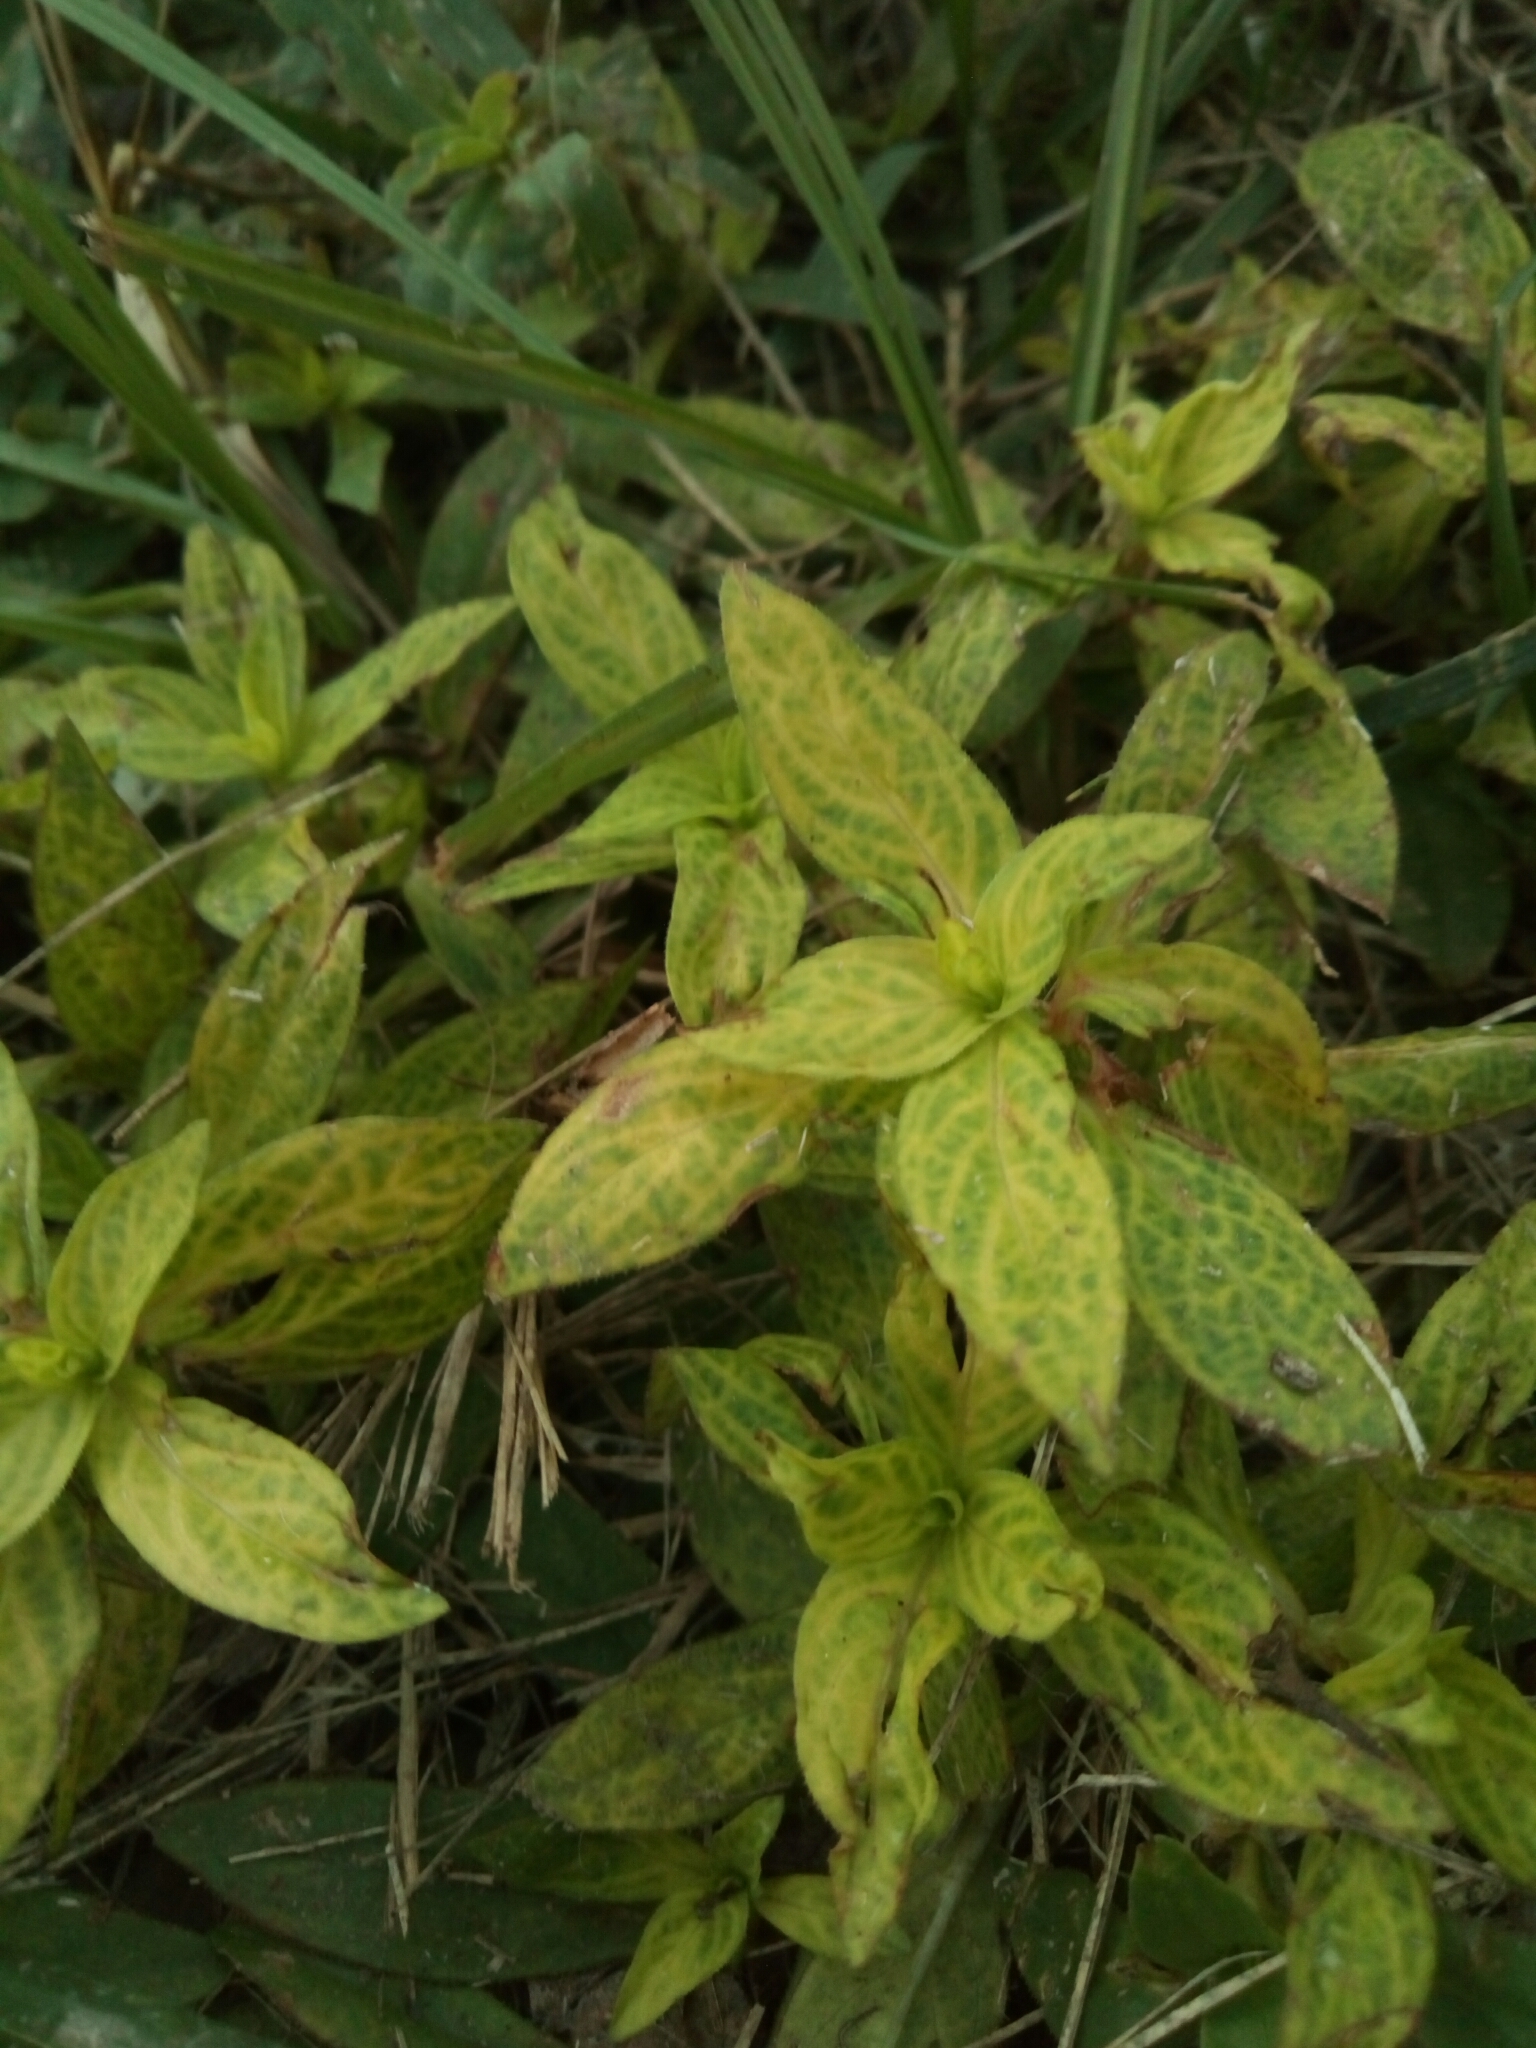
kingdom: Plantae
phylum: Tracheophyta
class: Magnoliopsida
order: Gentianales
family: Rubiaceae
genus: Diodia
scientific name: Diodia virginiana
